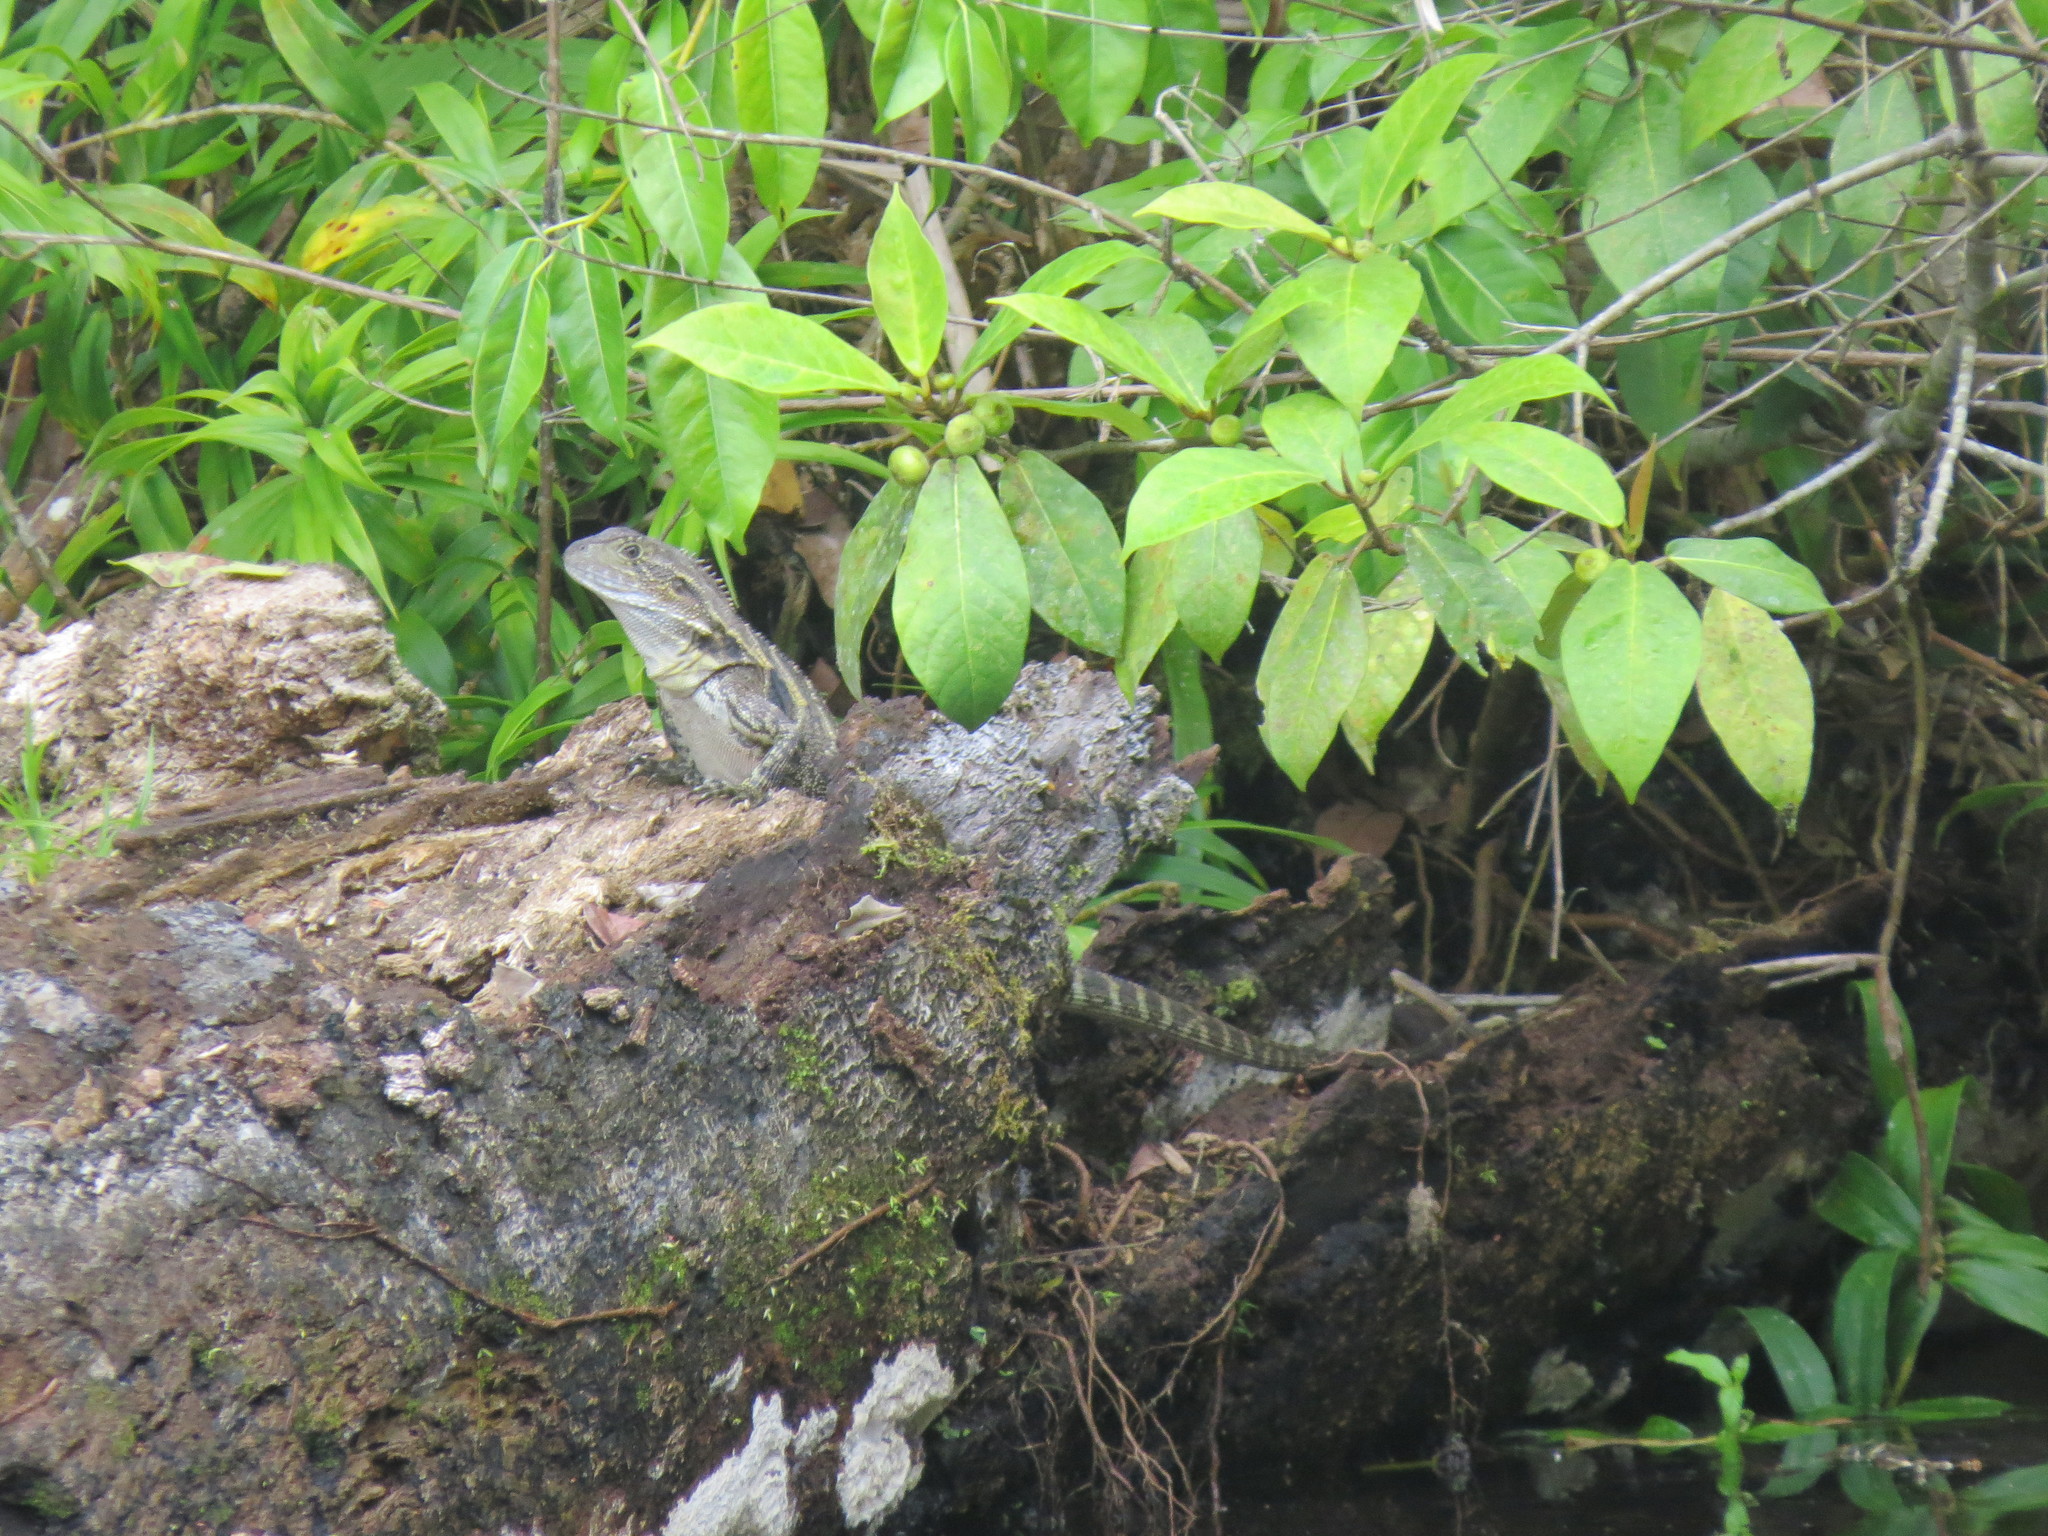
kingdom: Animalia
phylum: Chordata
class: Squamata
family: Agamidae
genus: Intellagama
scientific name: Intellagama lesueurii
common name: Eastern water dragon
